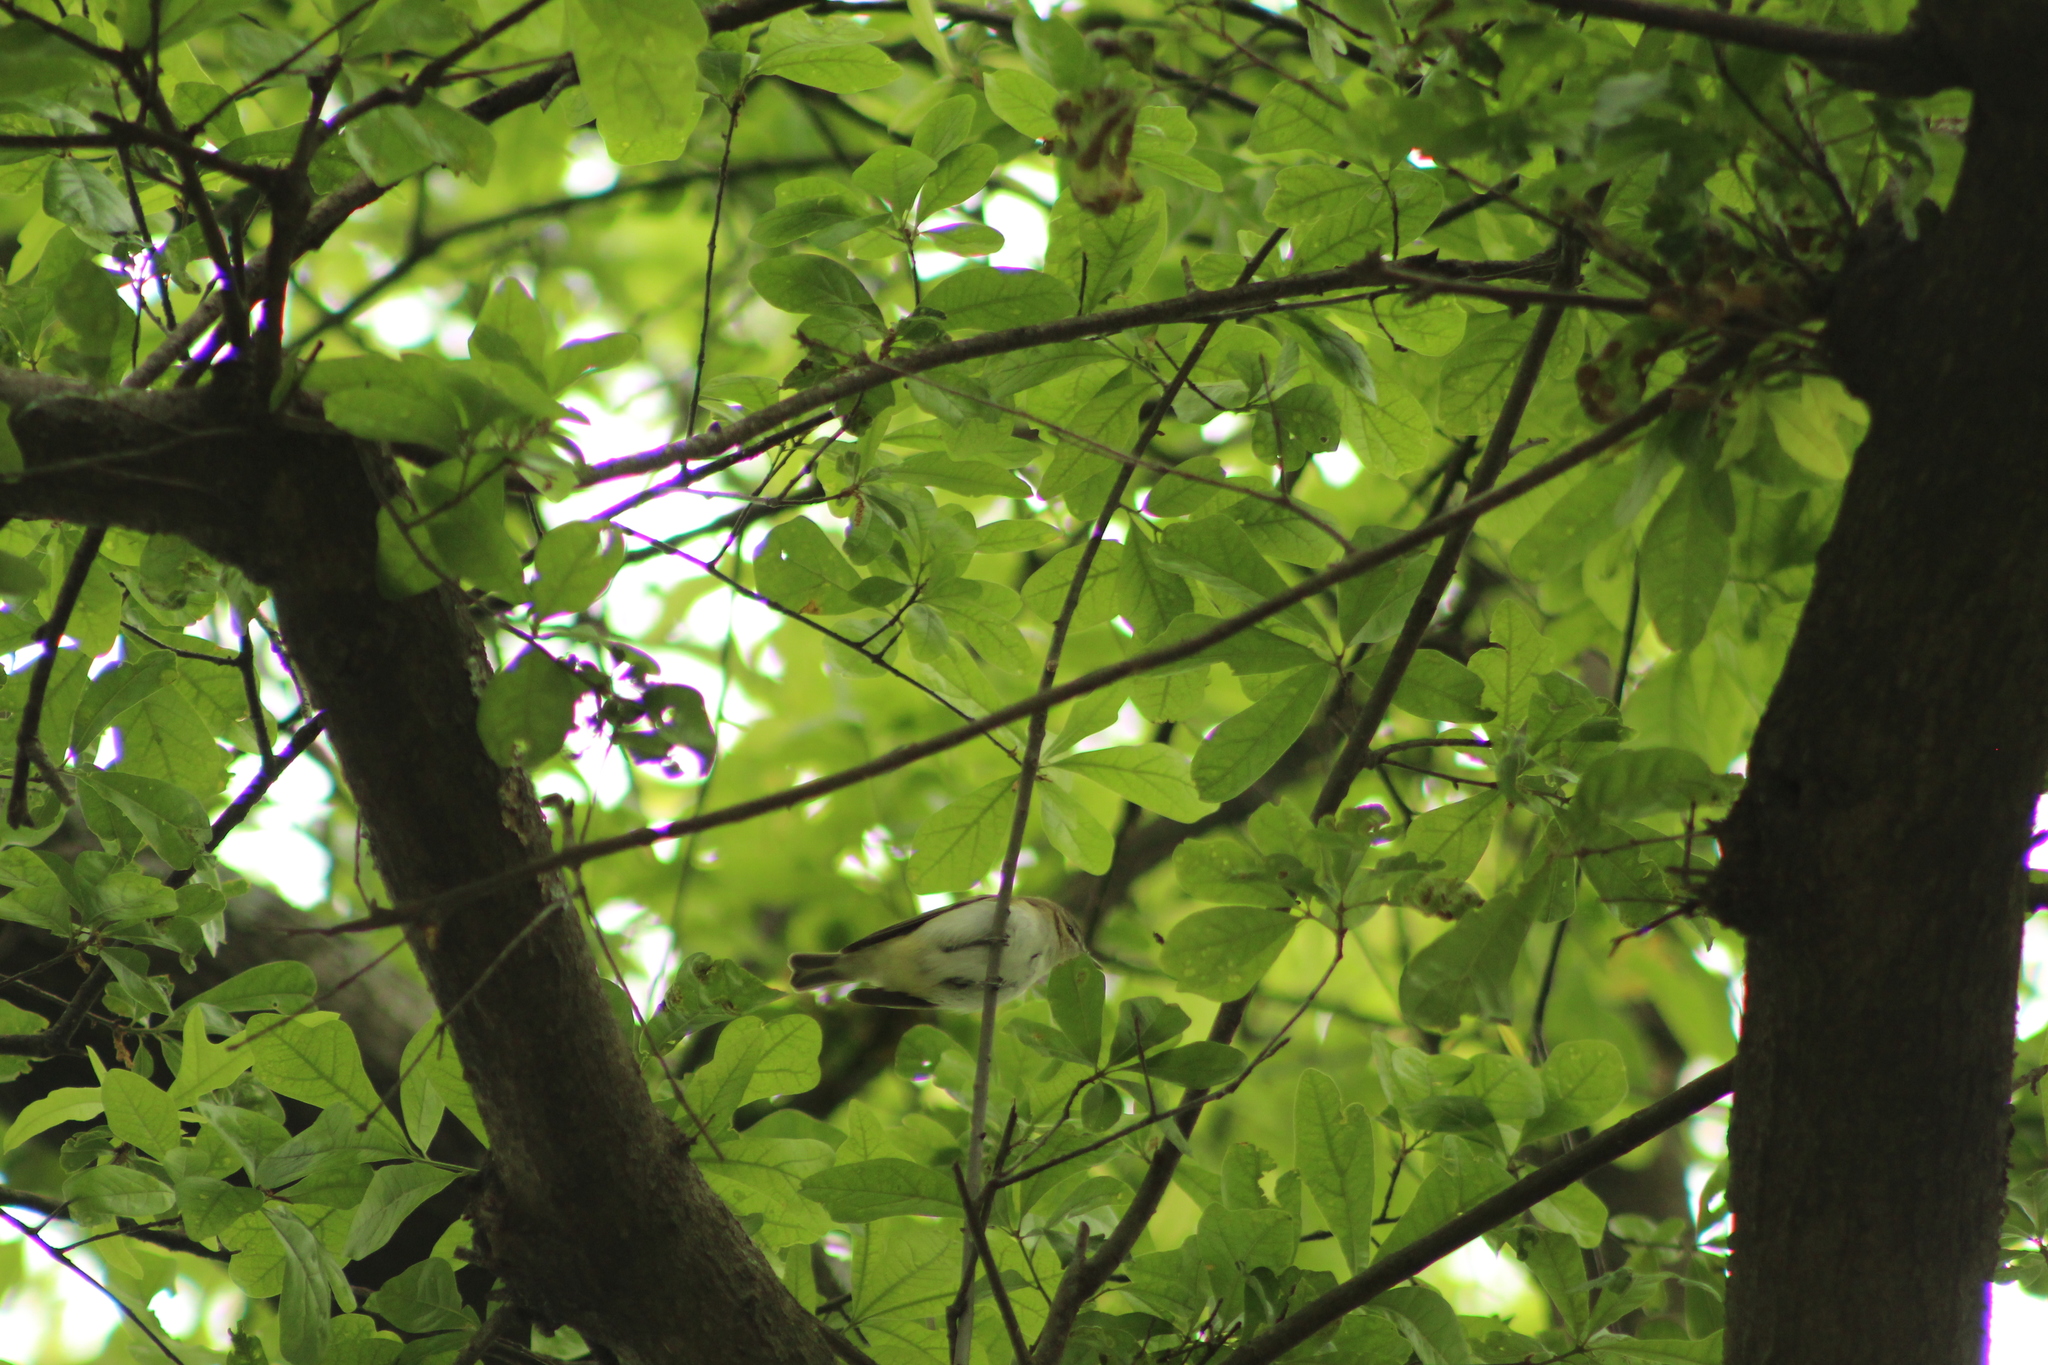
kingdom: Animalia
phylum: Chordata
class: Aves
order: Passeriformes
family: Vireonidae
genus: Vireo
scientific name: Vireo olivaceus
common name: Red-eyed vireo
